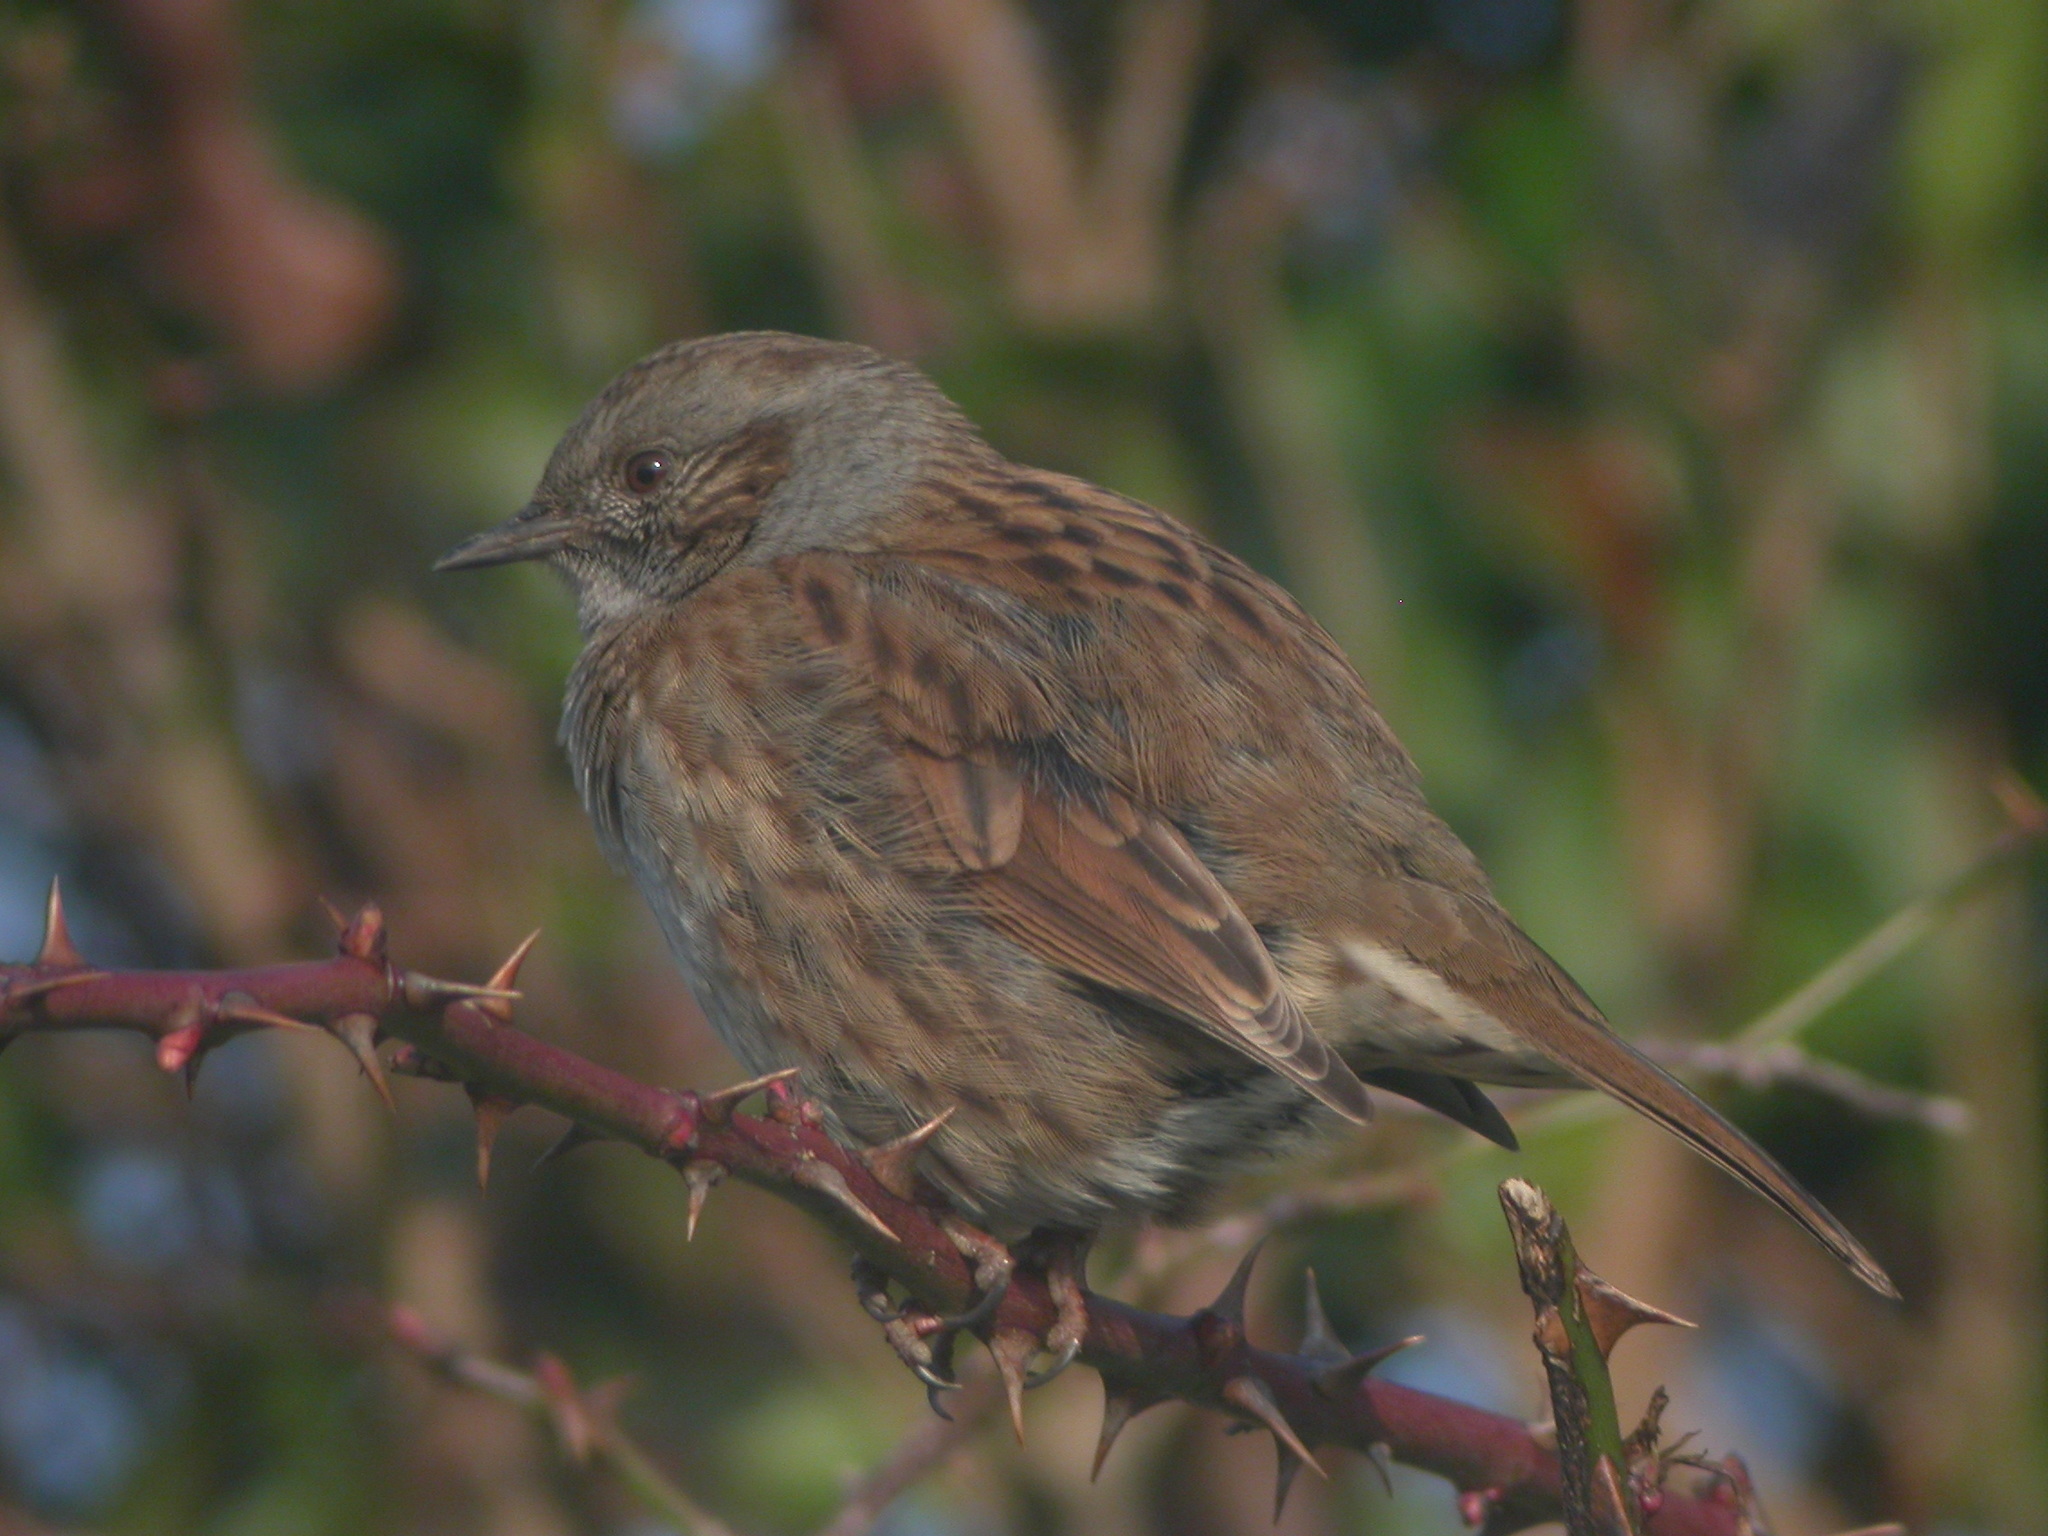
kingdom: Animalia
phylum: Chordata
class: Aves
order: Passeriformes
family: Prunellidae
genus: Prunella
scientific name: Prunella modularis
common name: Dunnock
